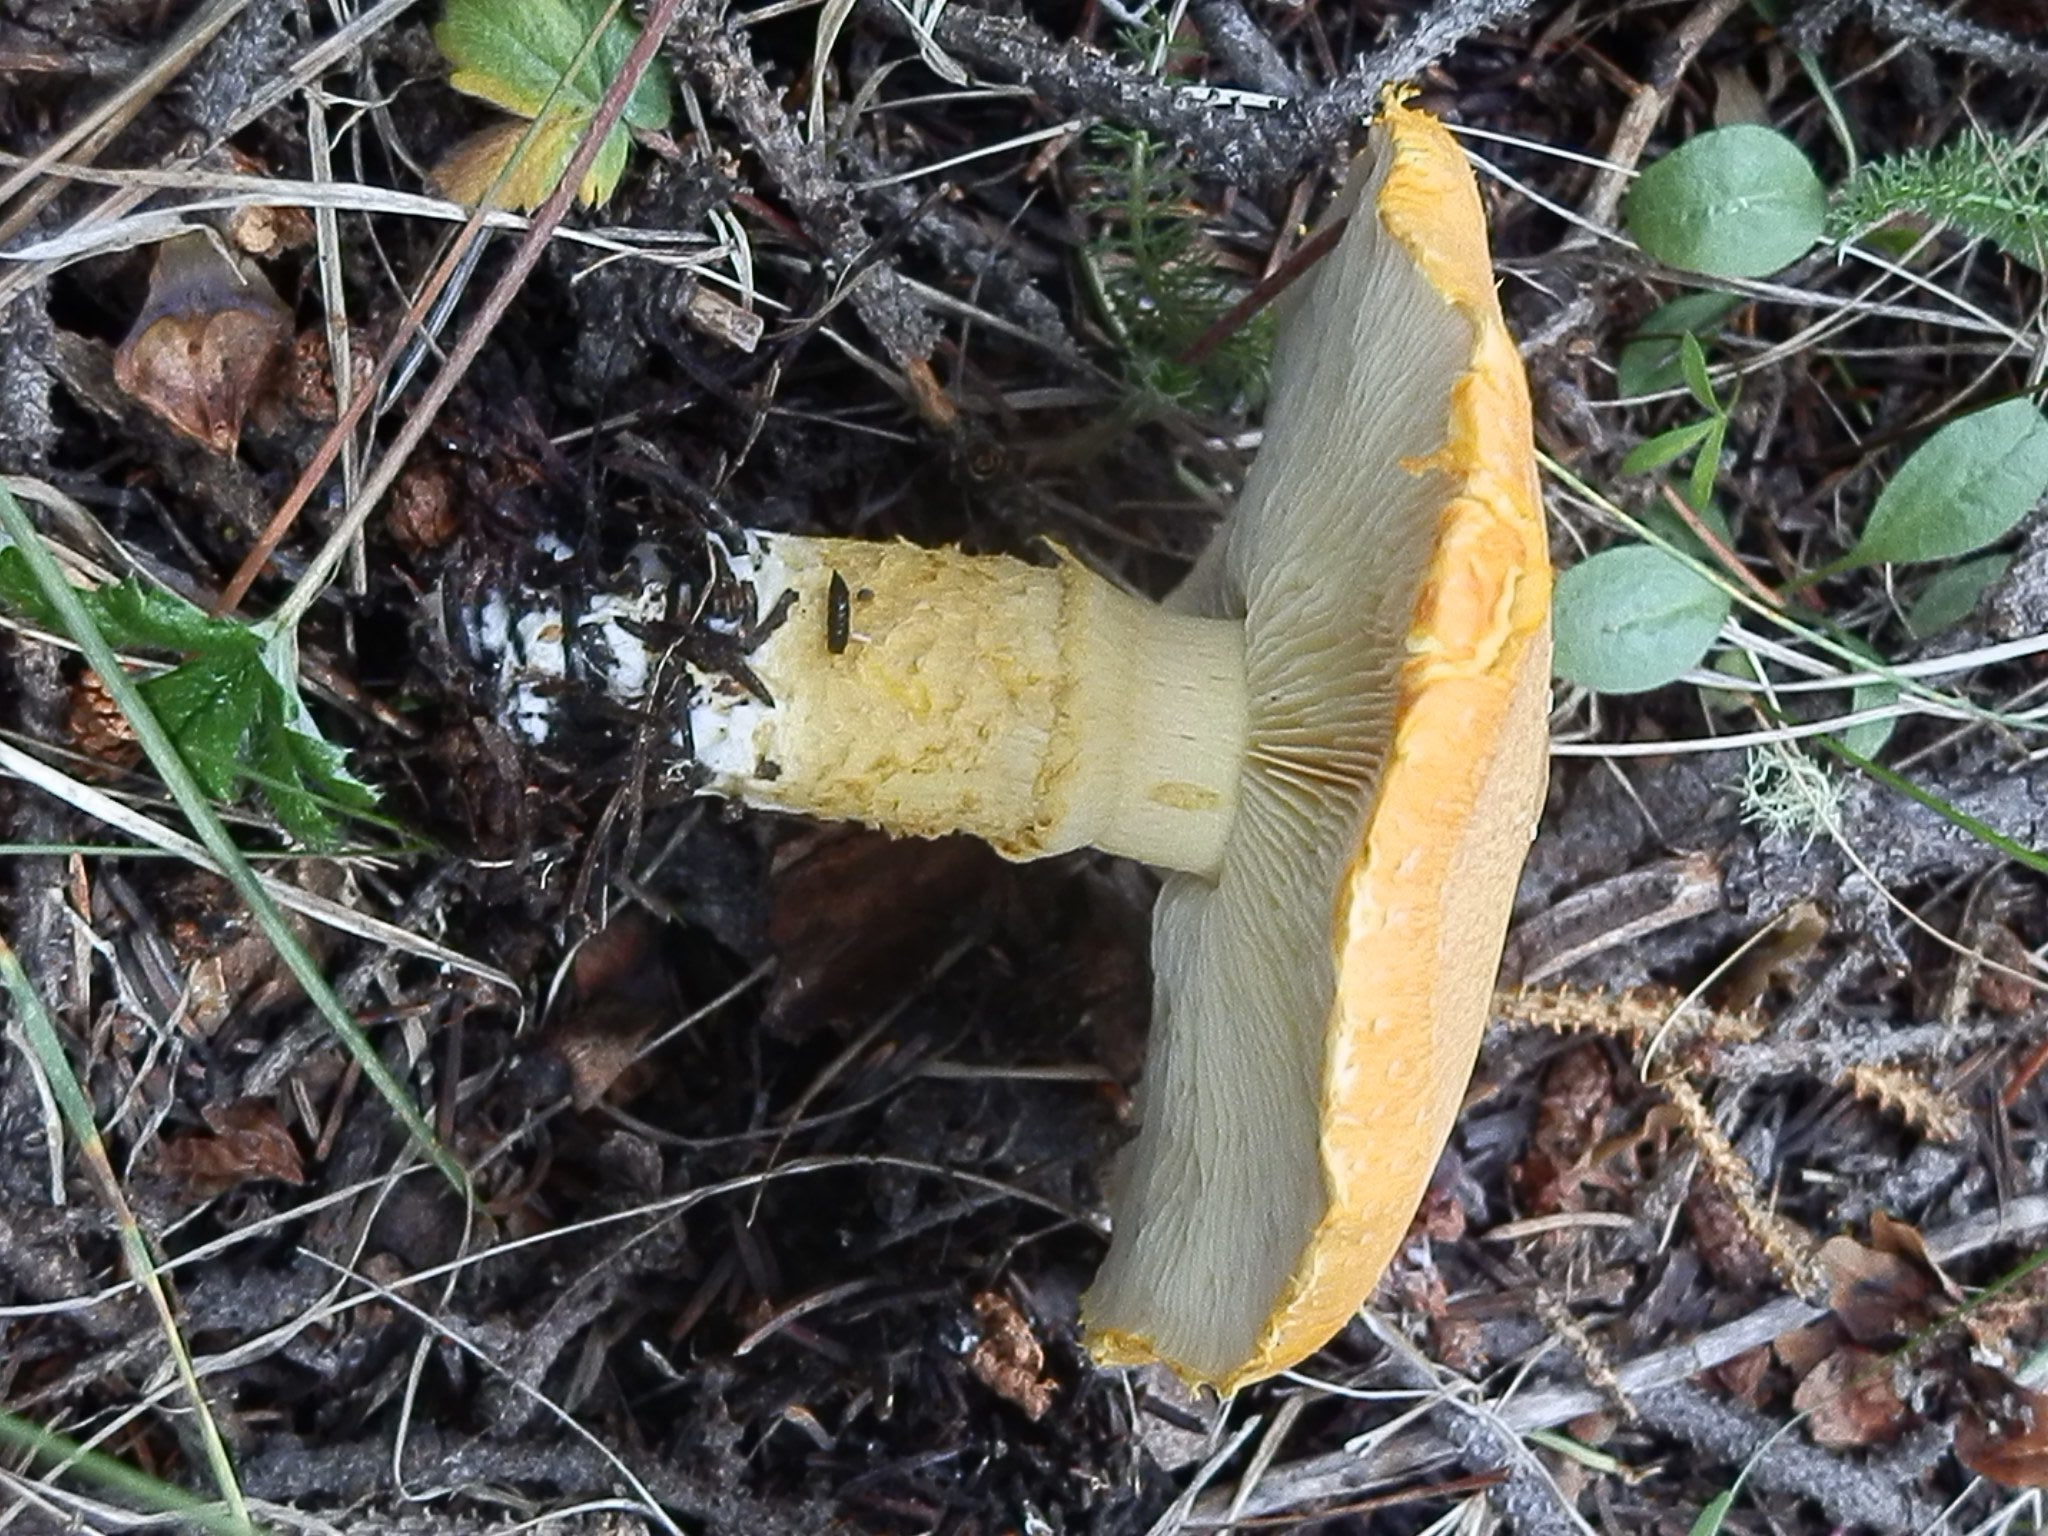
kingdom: Fungi
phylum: Basidiomycota
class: Agaricomycetes
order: Agaricales
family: Agaricaceae
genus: Floccularia
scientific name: Floccularia albolanaripes
